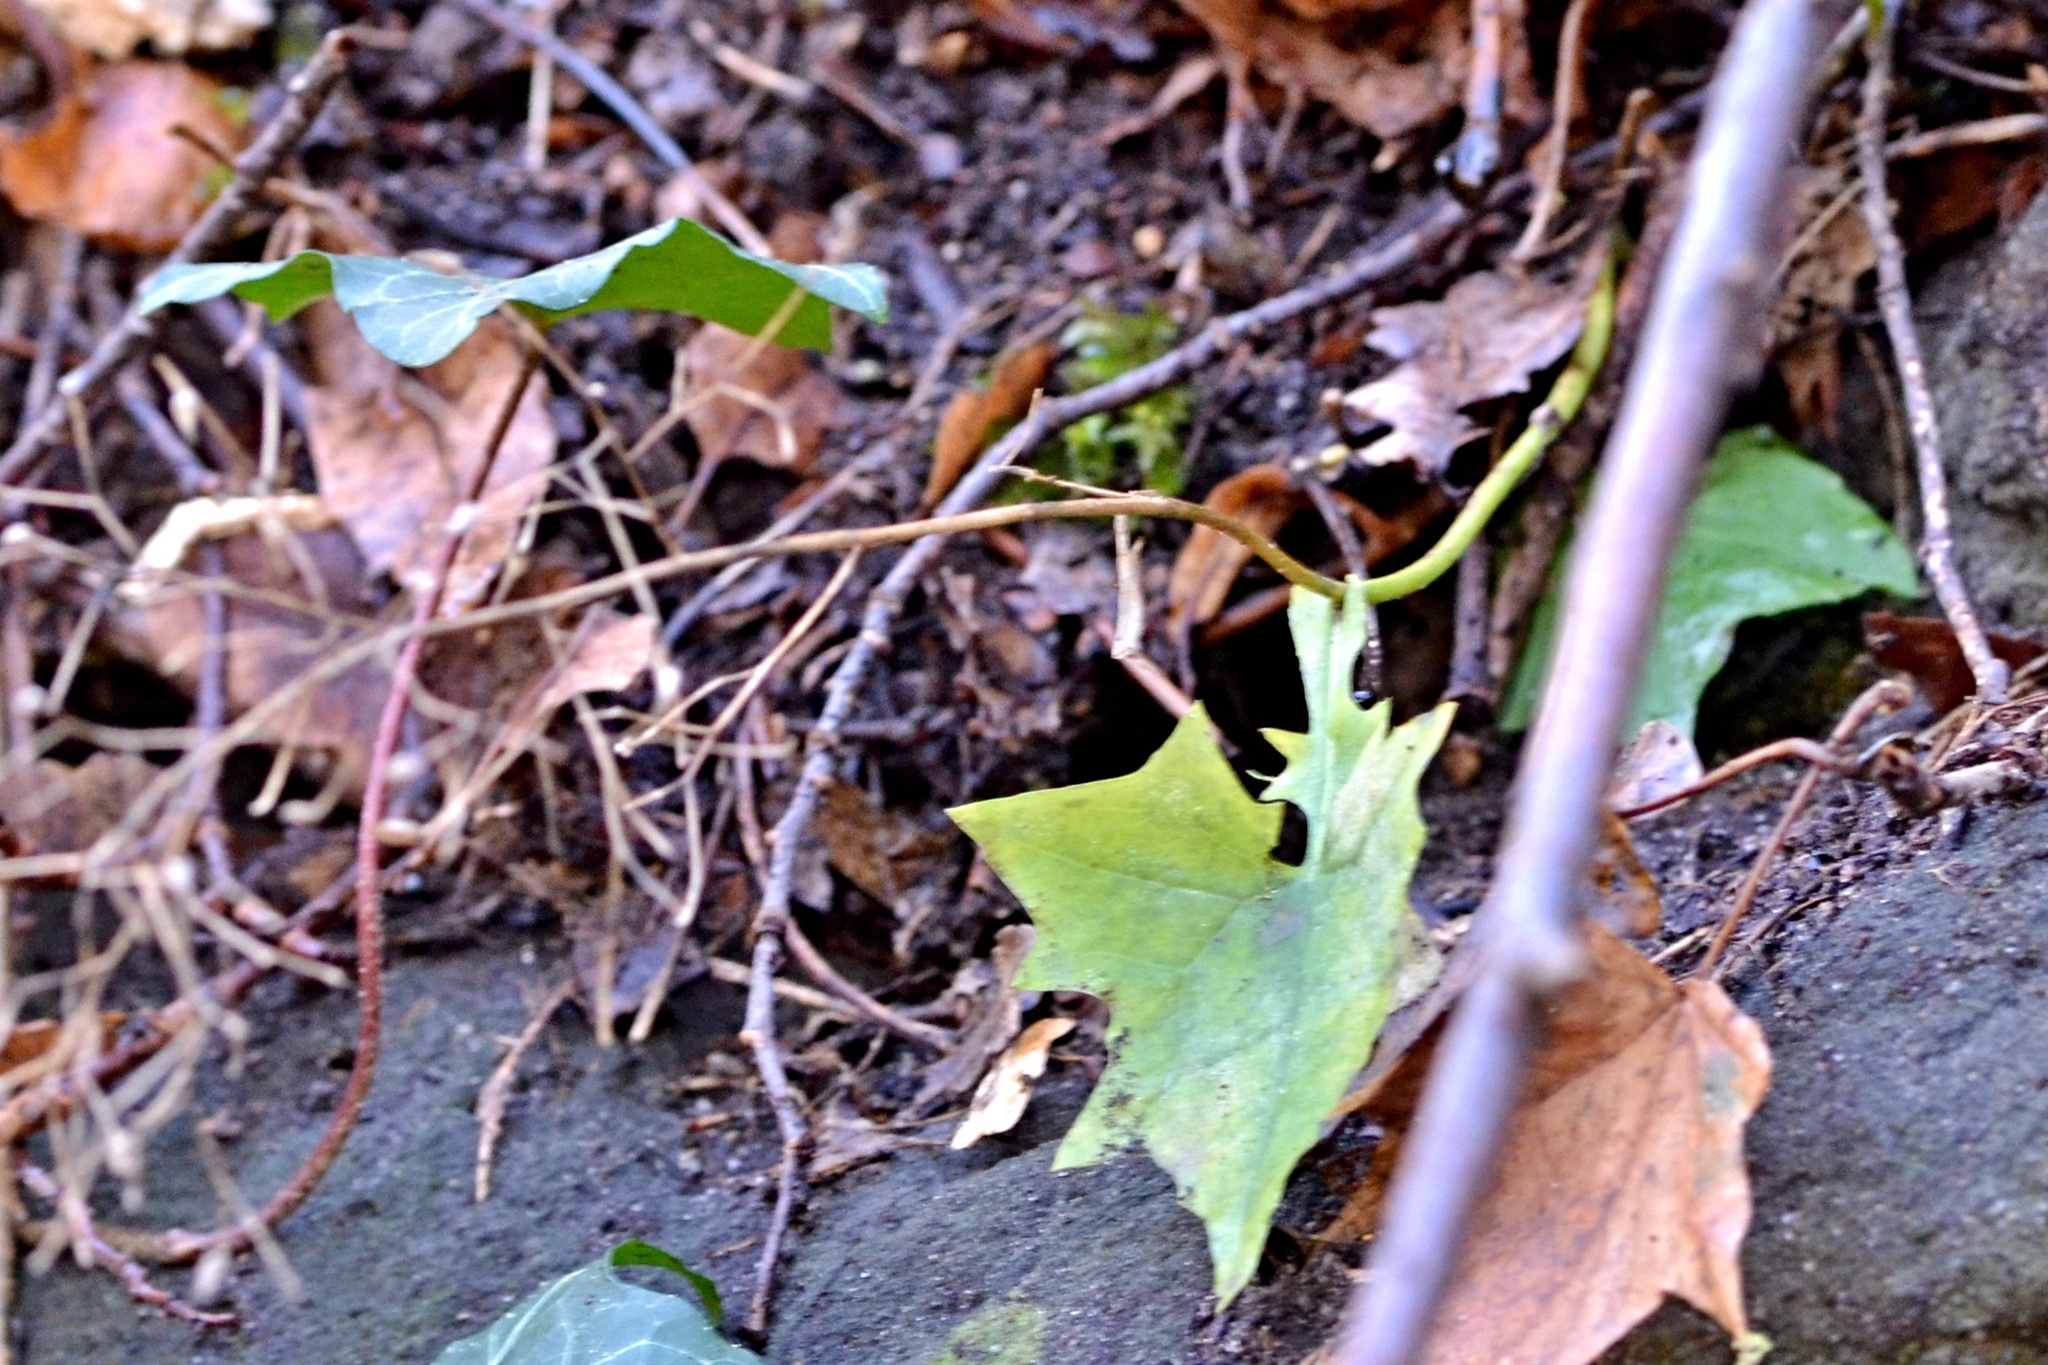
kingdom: Plantae
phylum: Tracheophyta
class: Magnoliopsida
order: Asterales
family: Asteraceae
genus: Mycelis
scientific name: Mycelis muralis
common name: Wall lettuce
